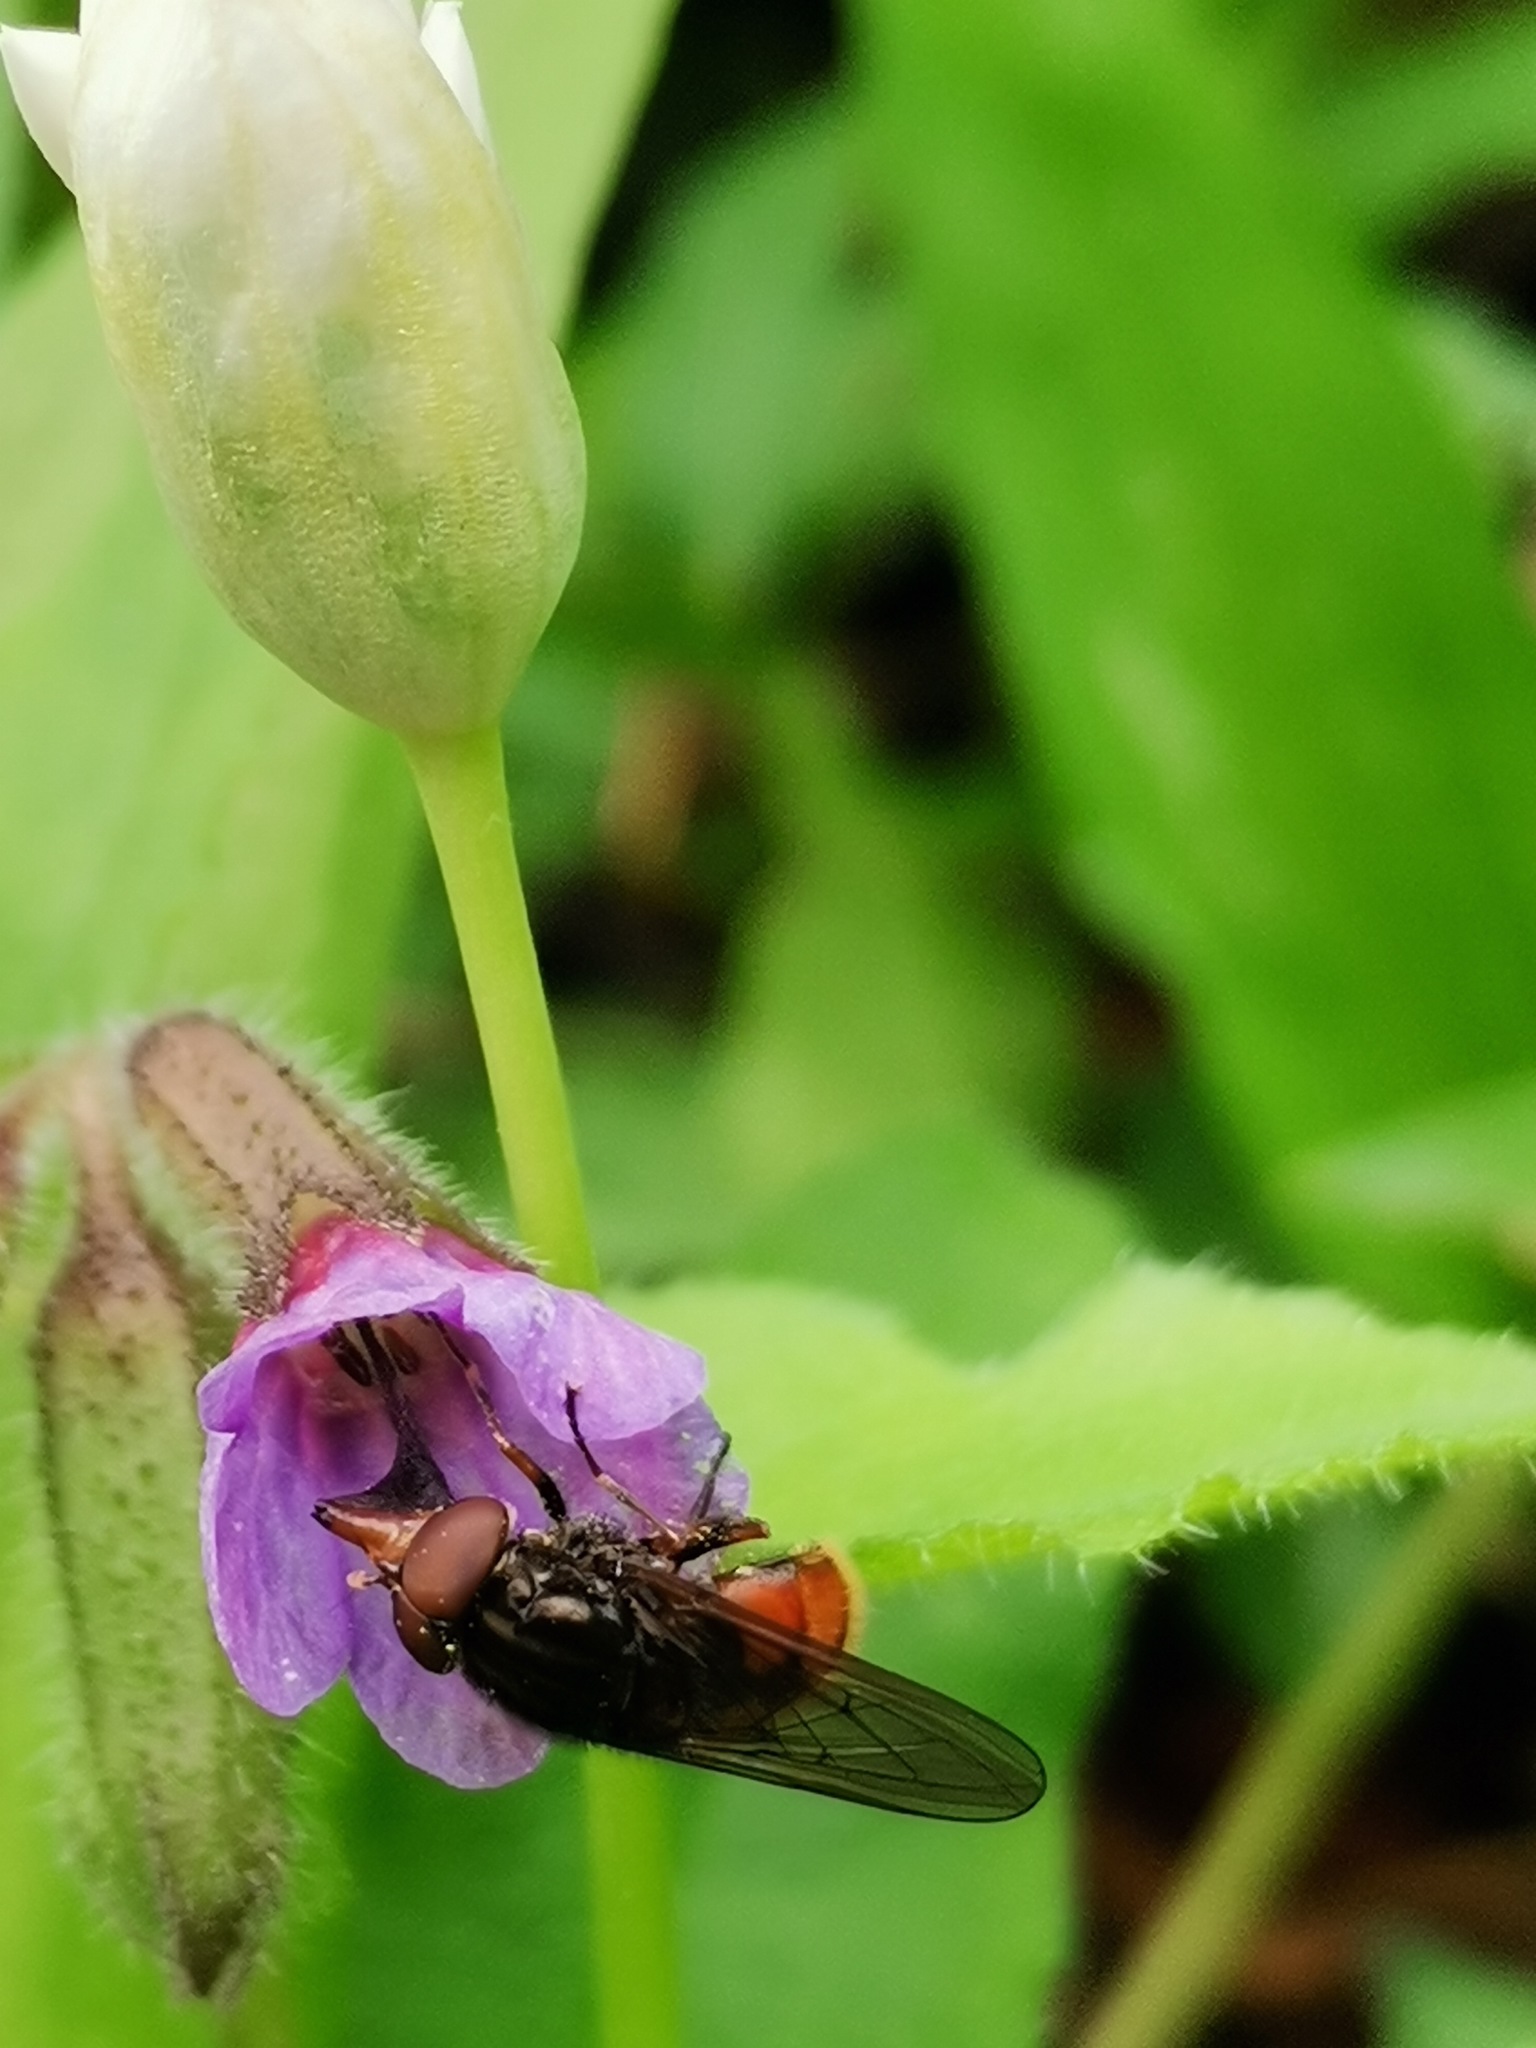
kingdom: Animalia
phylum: Arthropoda
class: Insecta
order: Diptera
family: Syrphidae
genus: Rhingia
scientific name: Rhingia campestris
